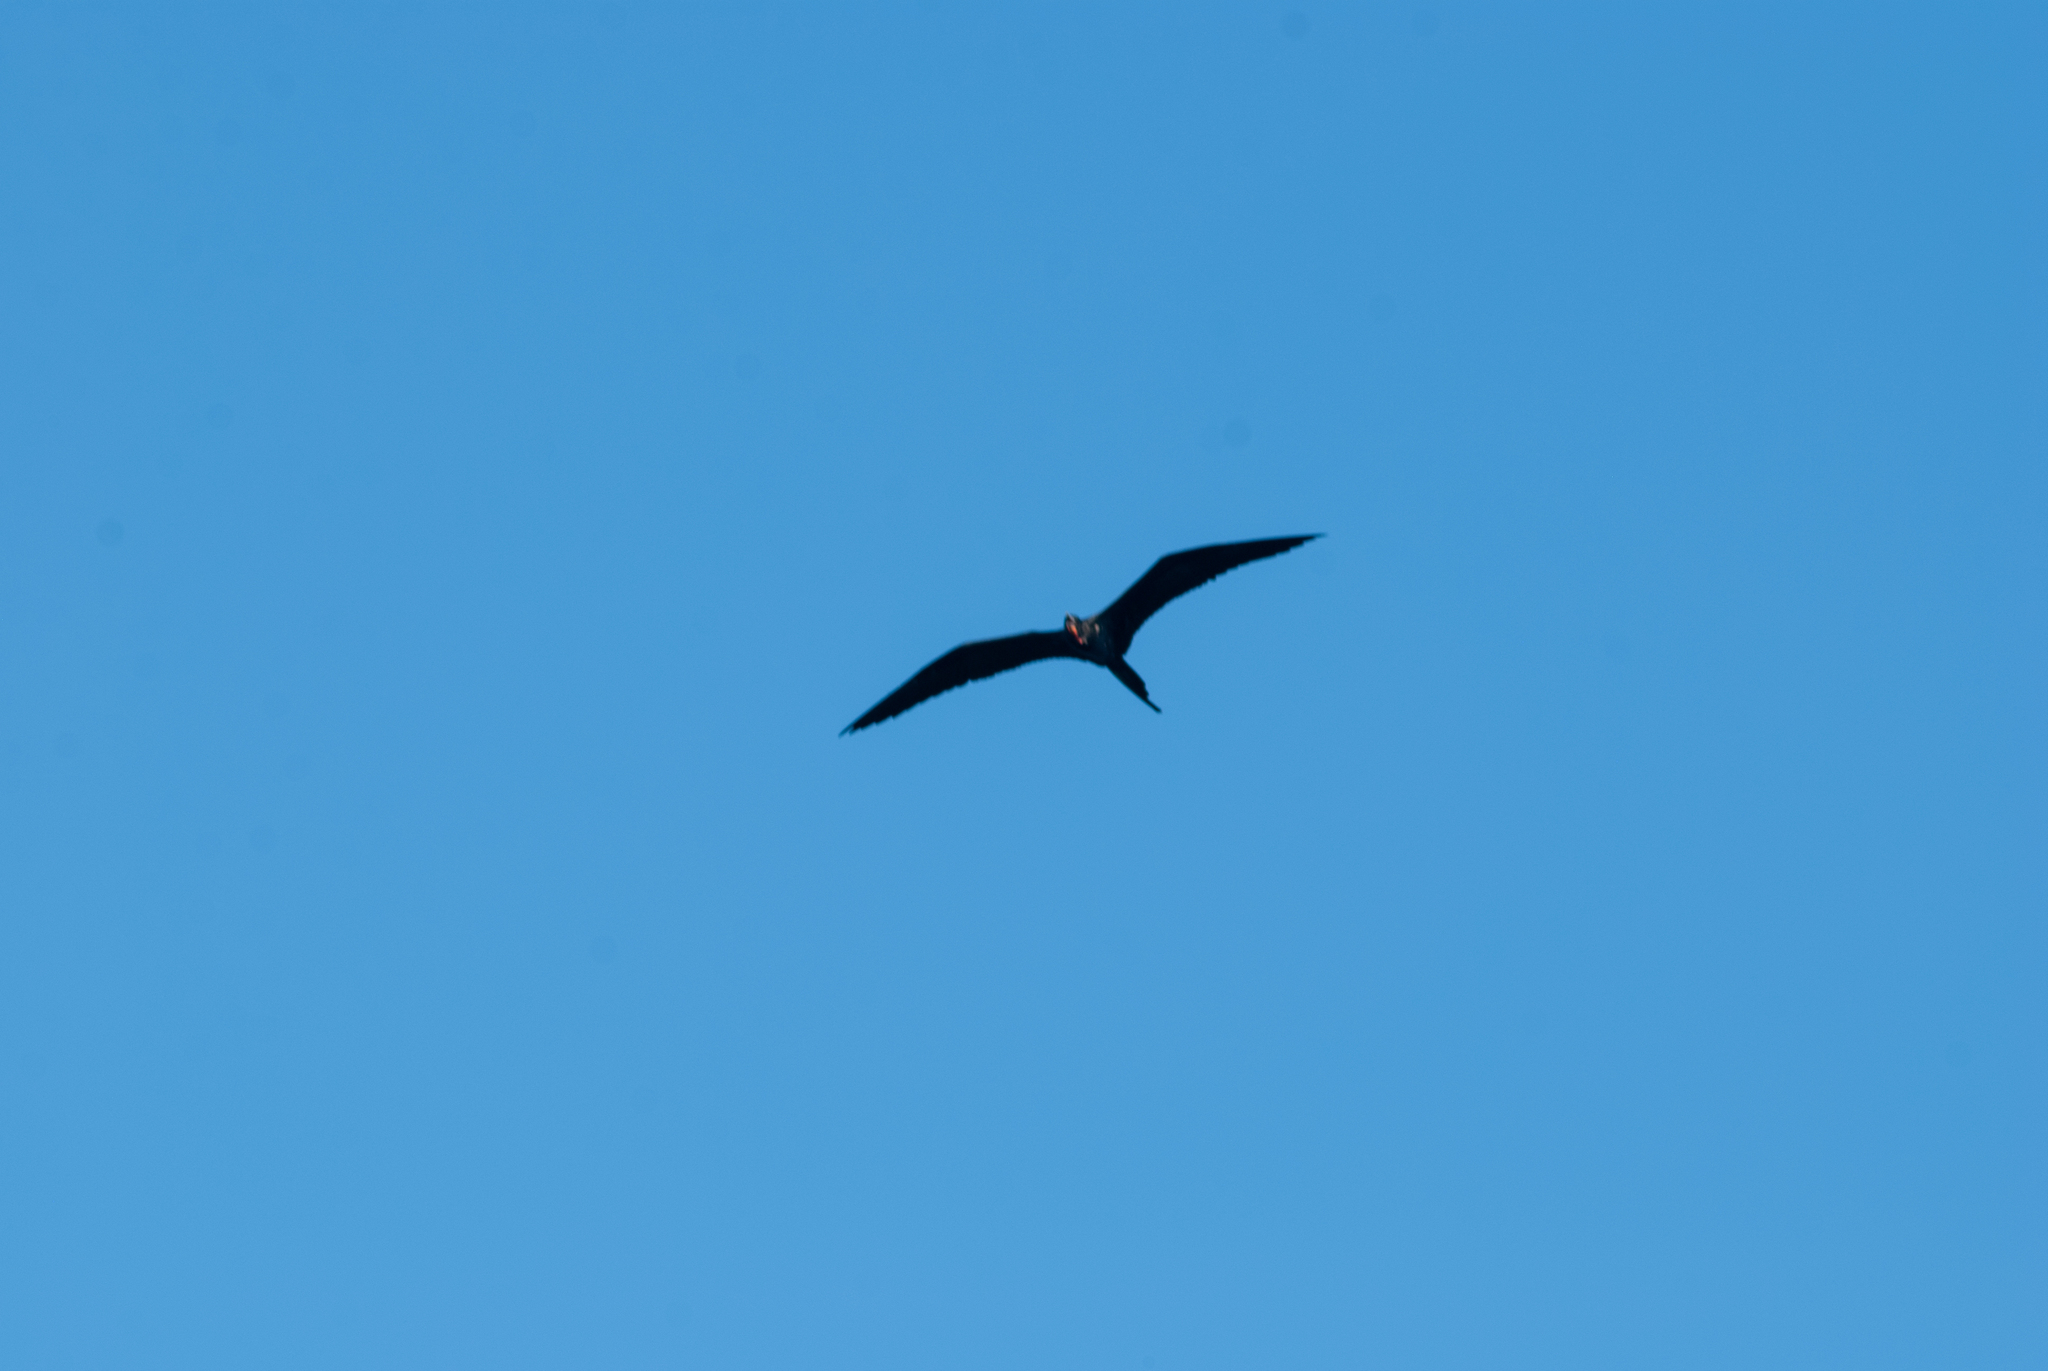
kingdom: Animalia
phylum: Chordata
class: Aves
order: Suliformes
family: Fregatidae
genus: Fregata
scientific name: Fregata magnificens
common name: Magnificent frigatebird
